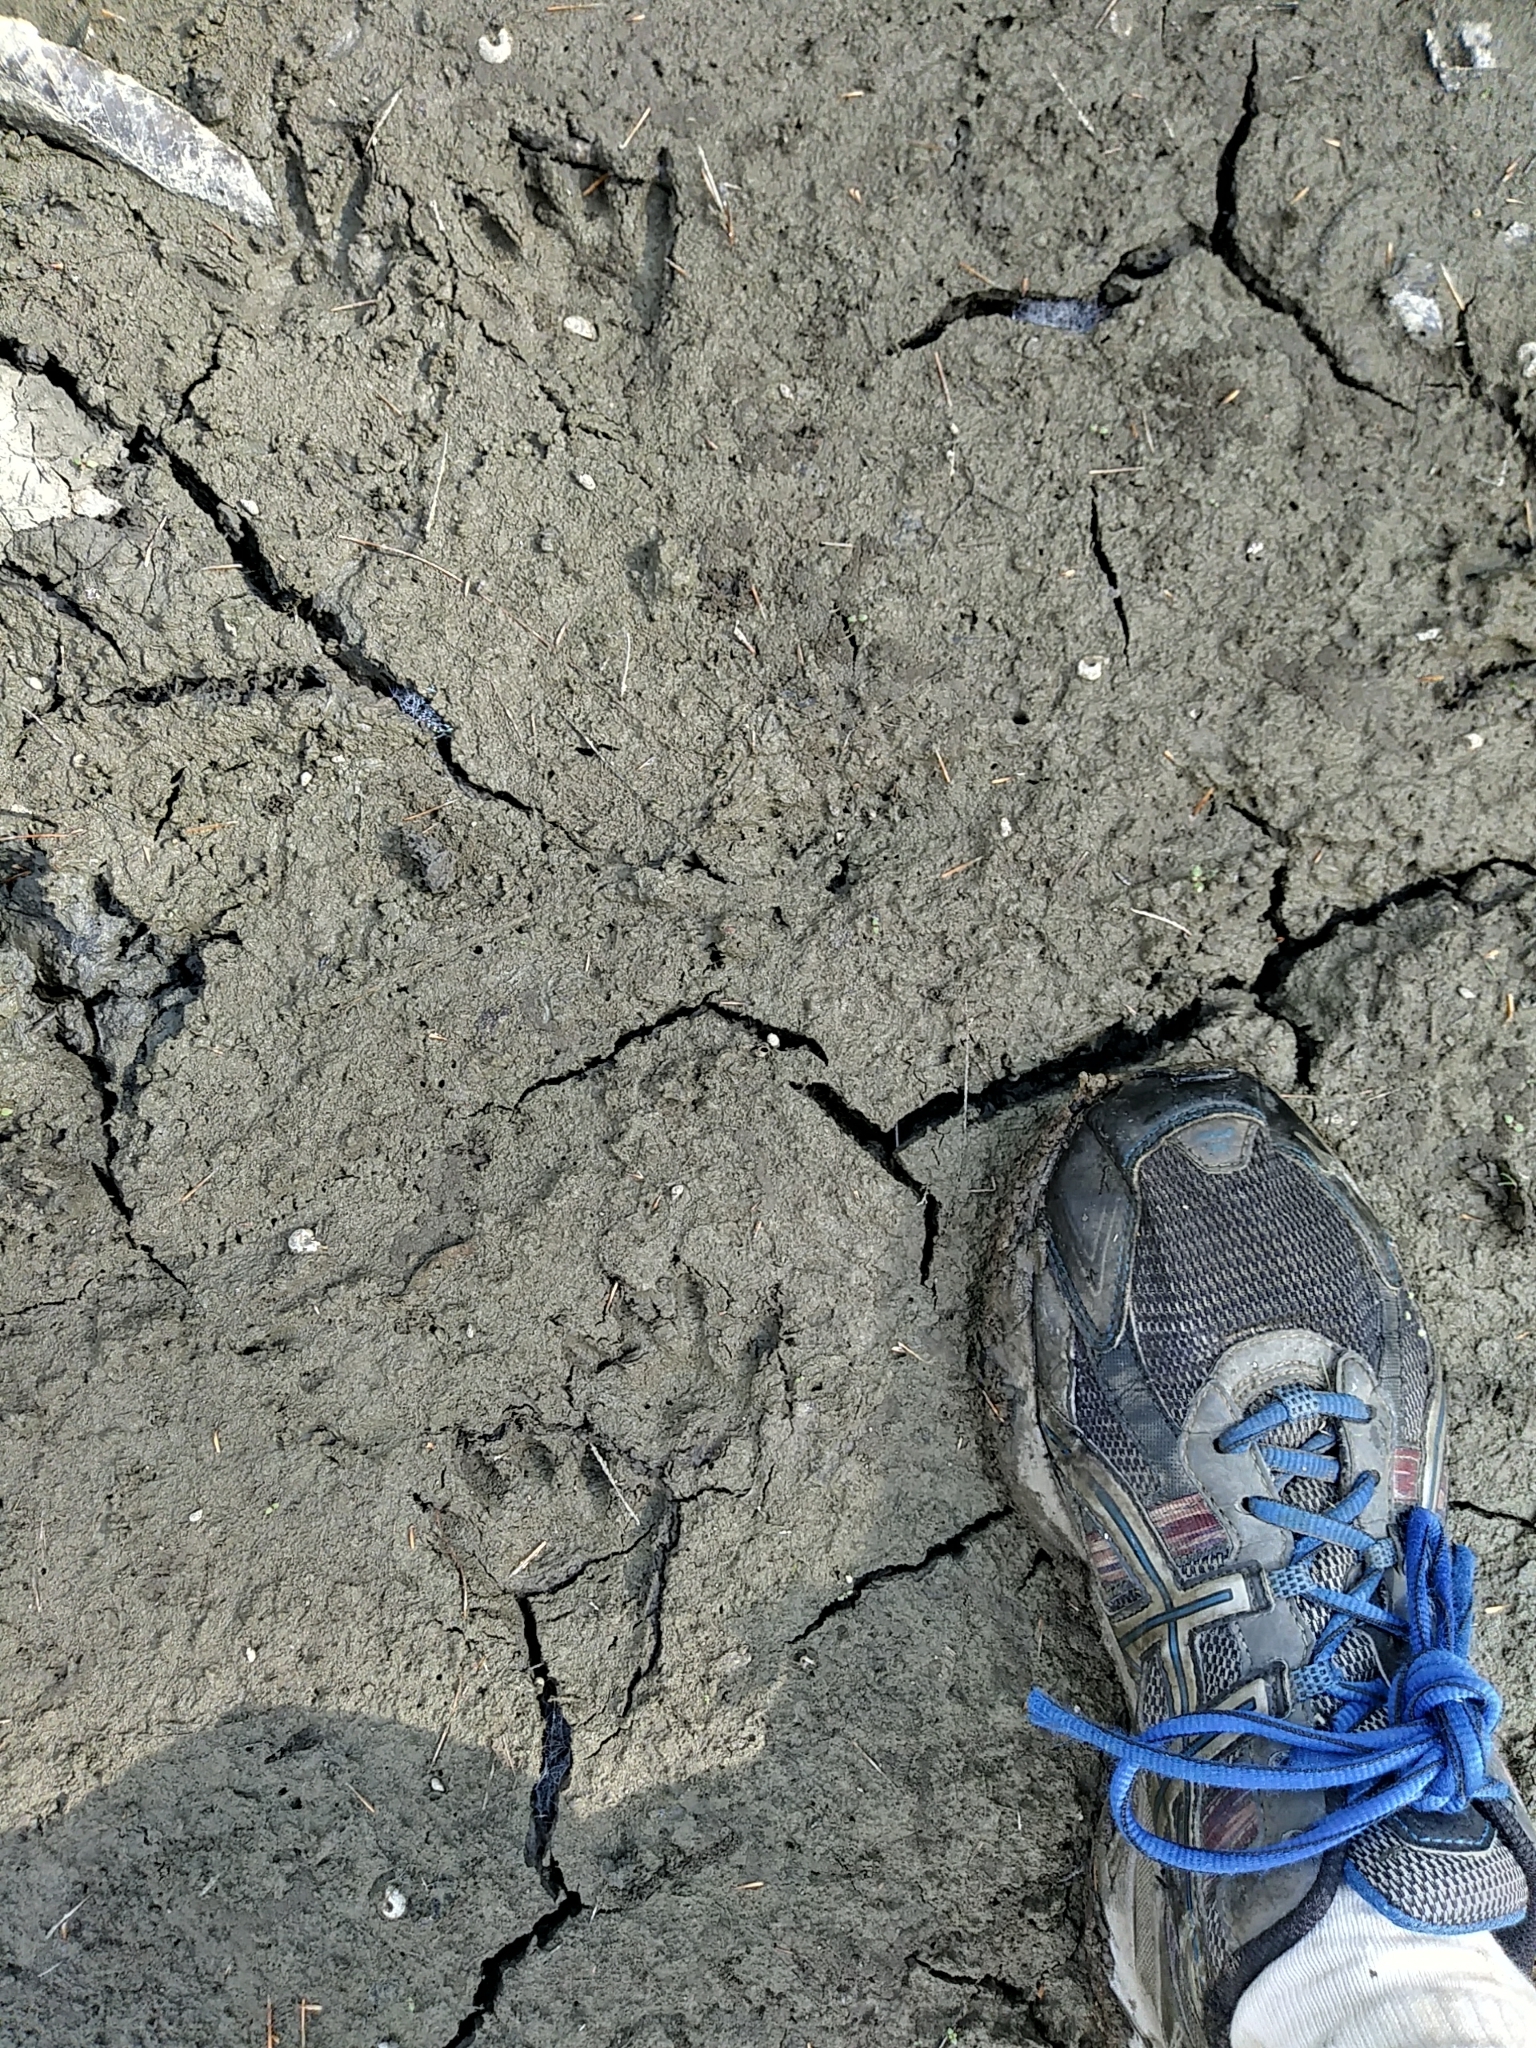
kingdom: Animalia
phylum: Chordata
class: Mammalia
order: Carnivora
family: Procyonidae
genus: Procyon
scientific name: Procyon lotor
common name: Raccoon
